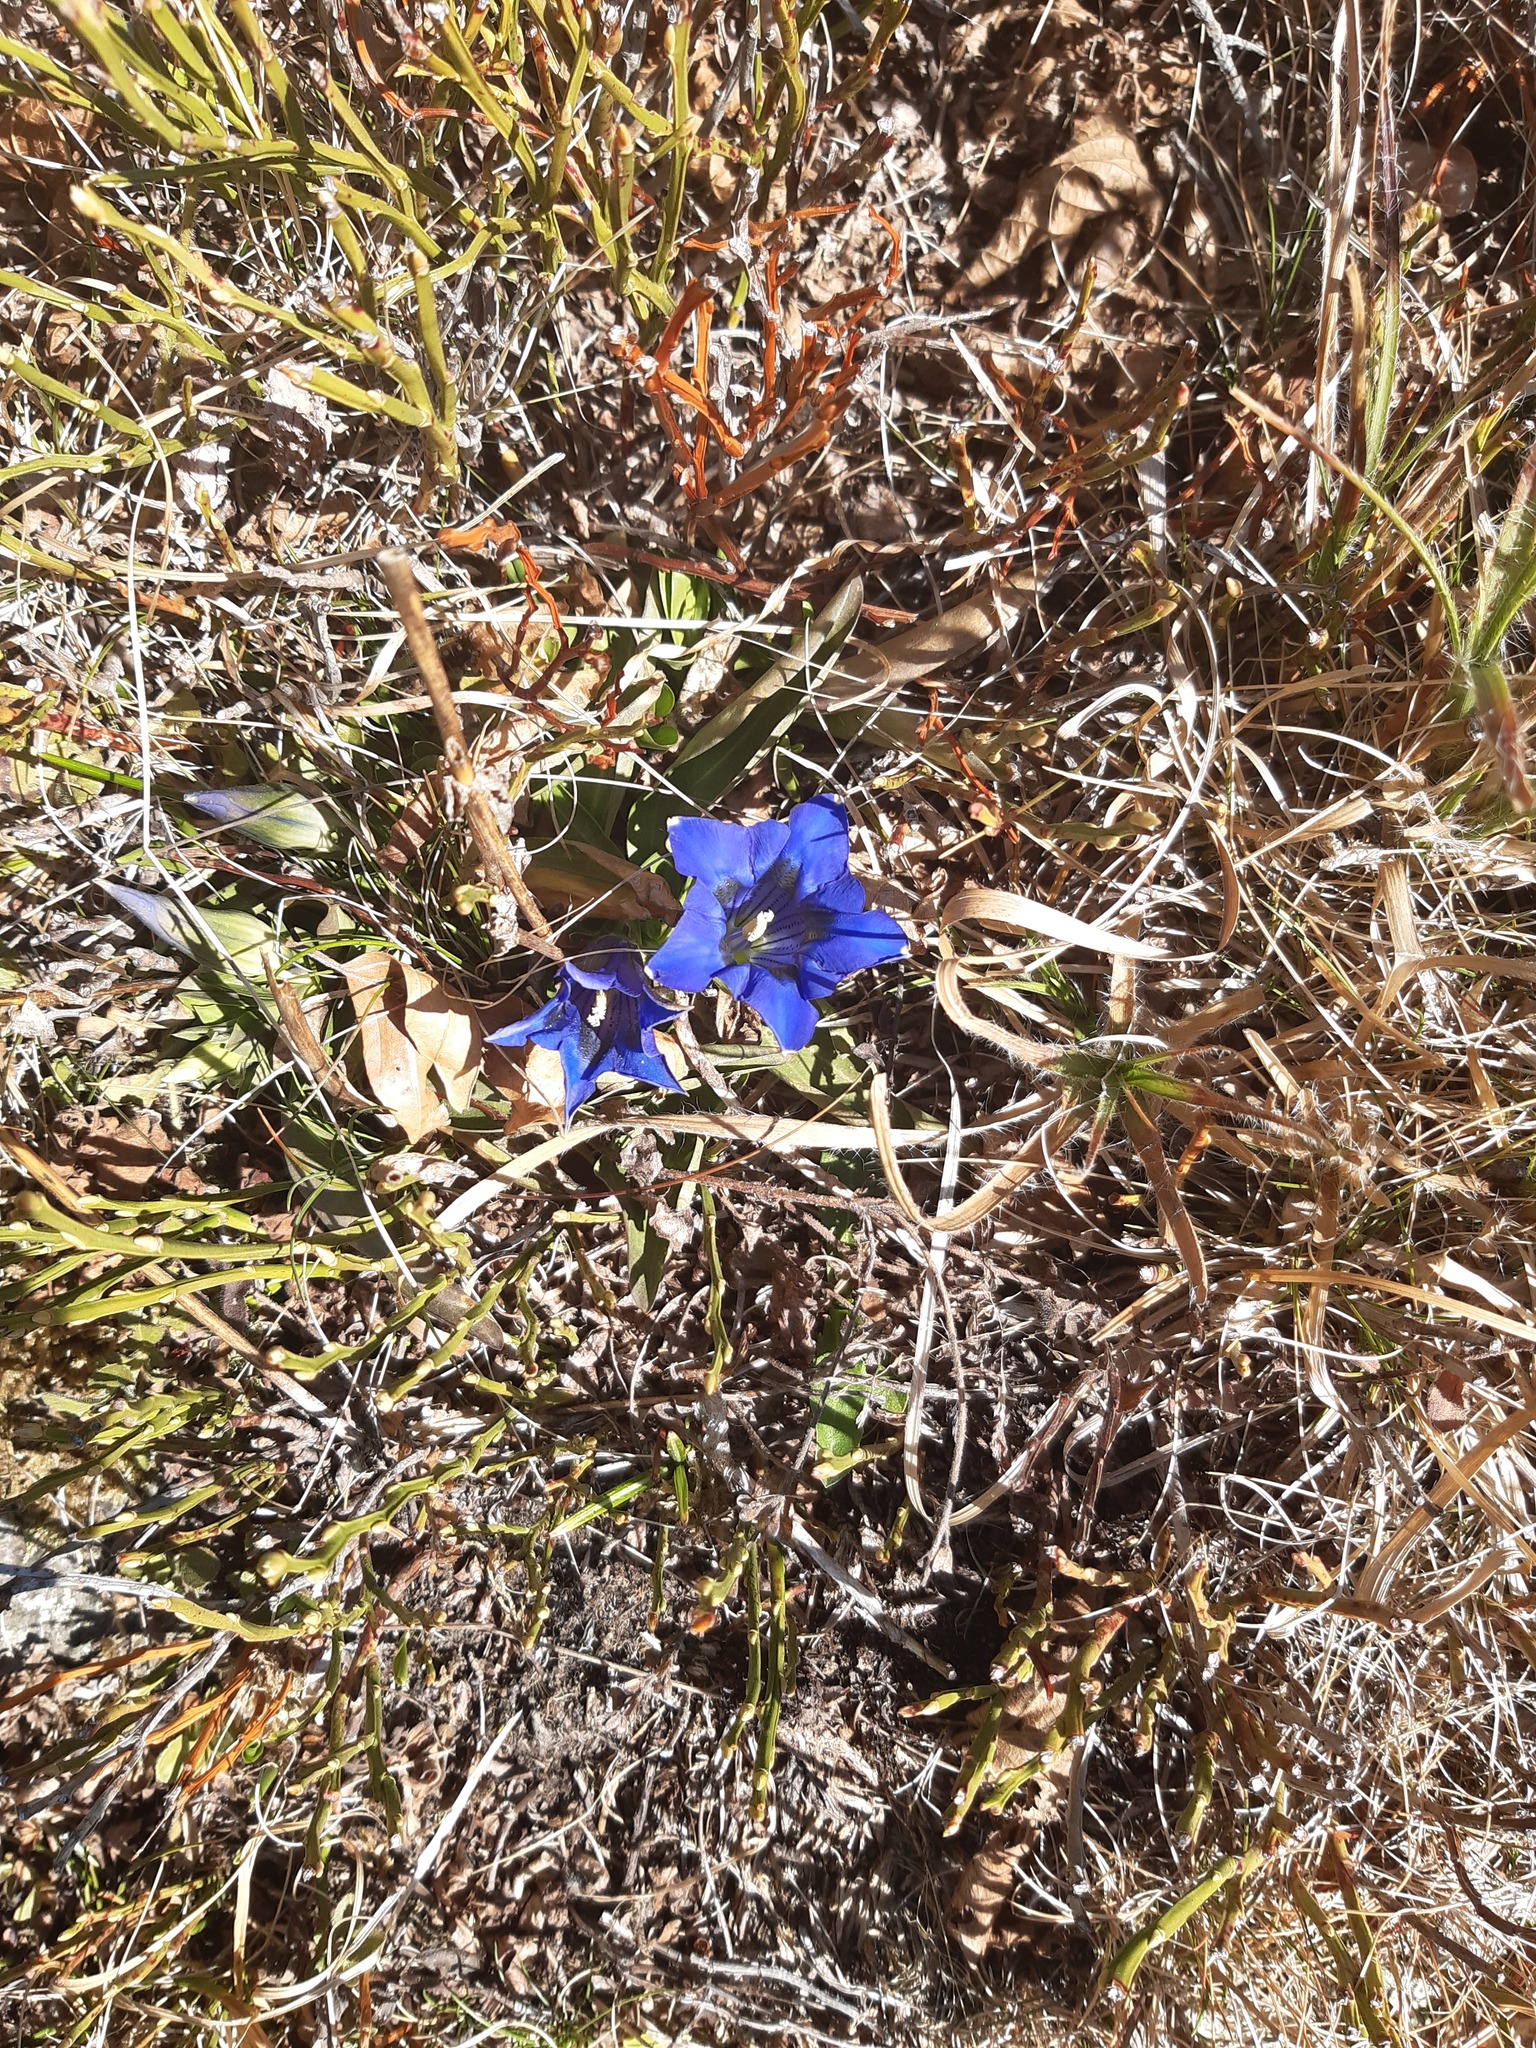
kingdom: Plantae
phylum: Tracheophyta
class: Magnoliopsida
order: Gentianales
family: Gentianaceae
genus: Gentiana
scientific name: Gentiana acaulis
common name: Trumpet gentian
